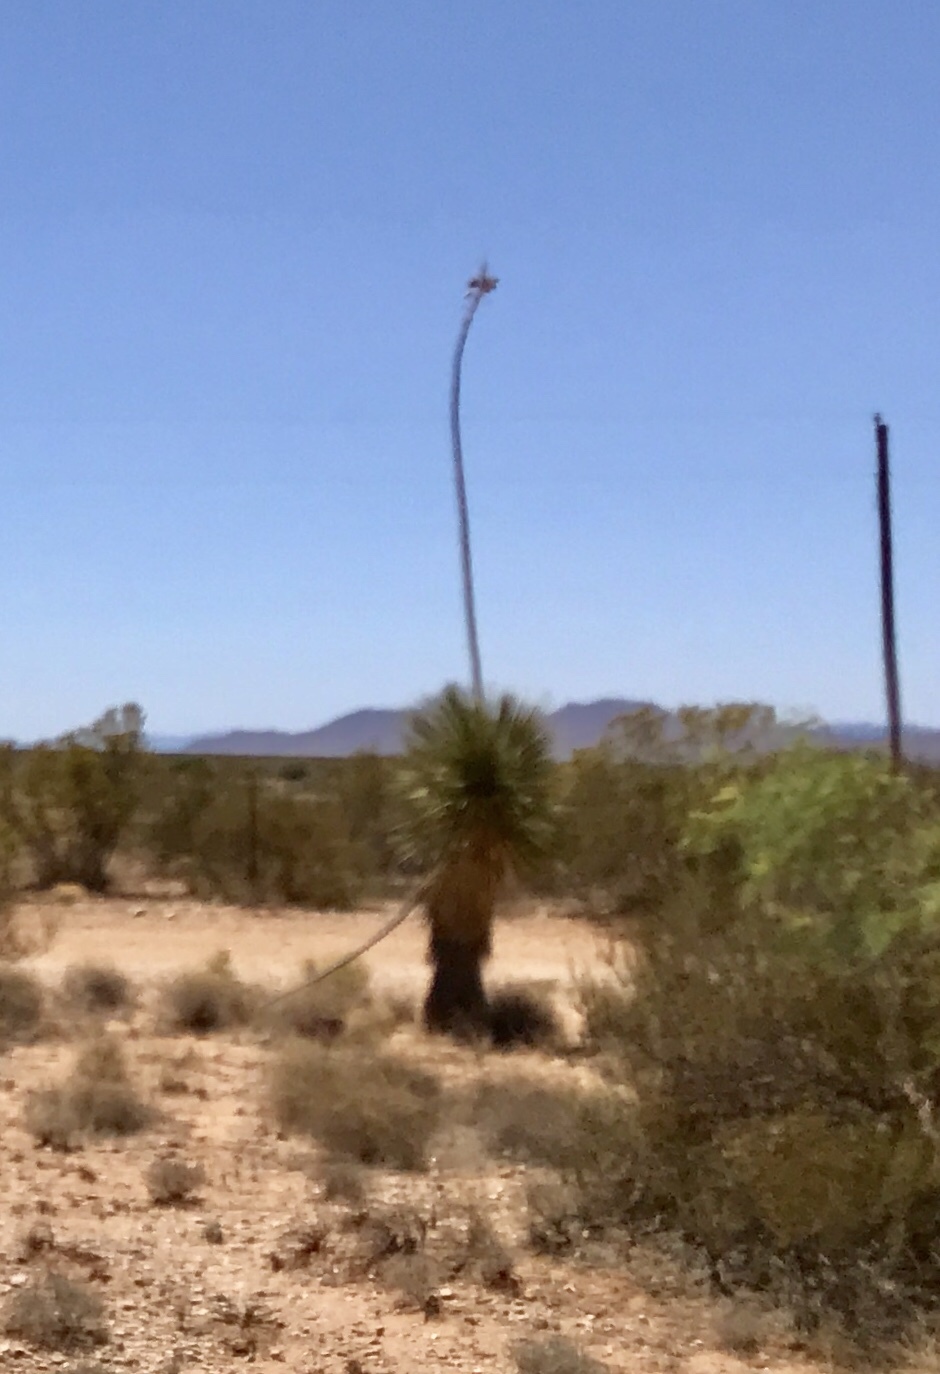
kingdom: Plantae
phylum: Tracheophyta
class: Liliopsida
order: Asparagales
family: Asparagaceae
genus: Yucca
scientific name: Yucca elata
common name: Palmella
